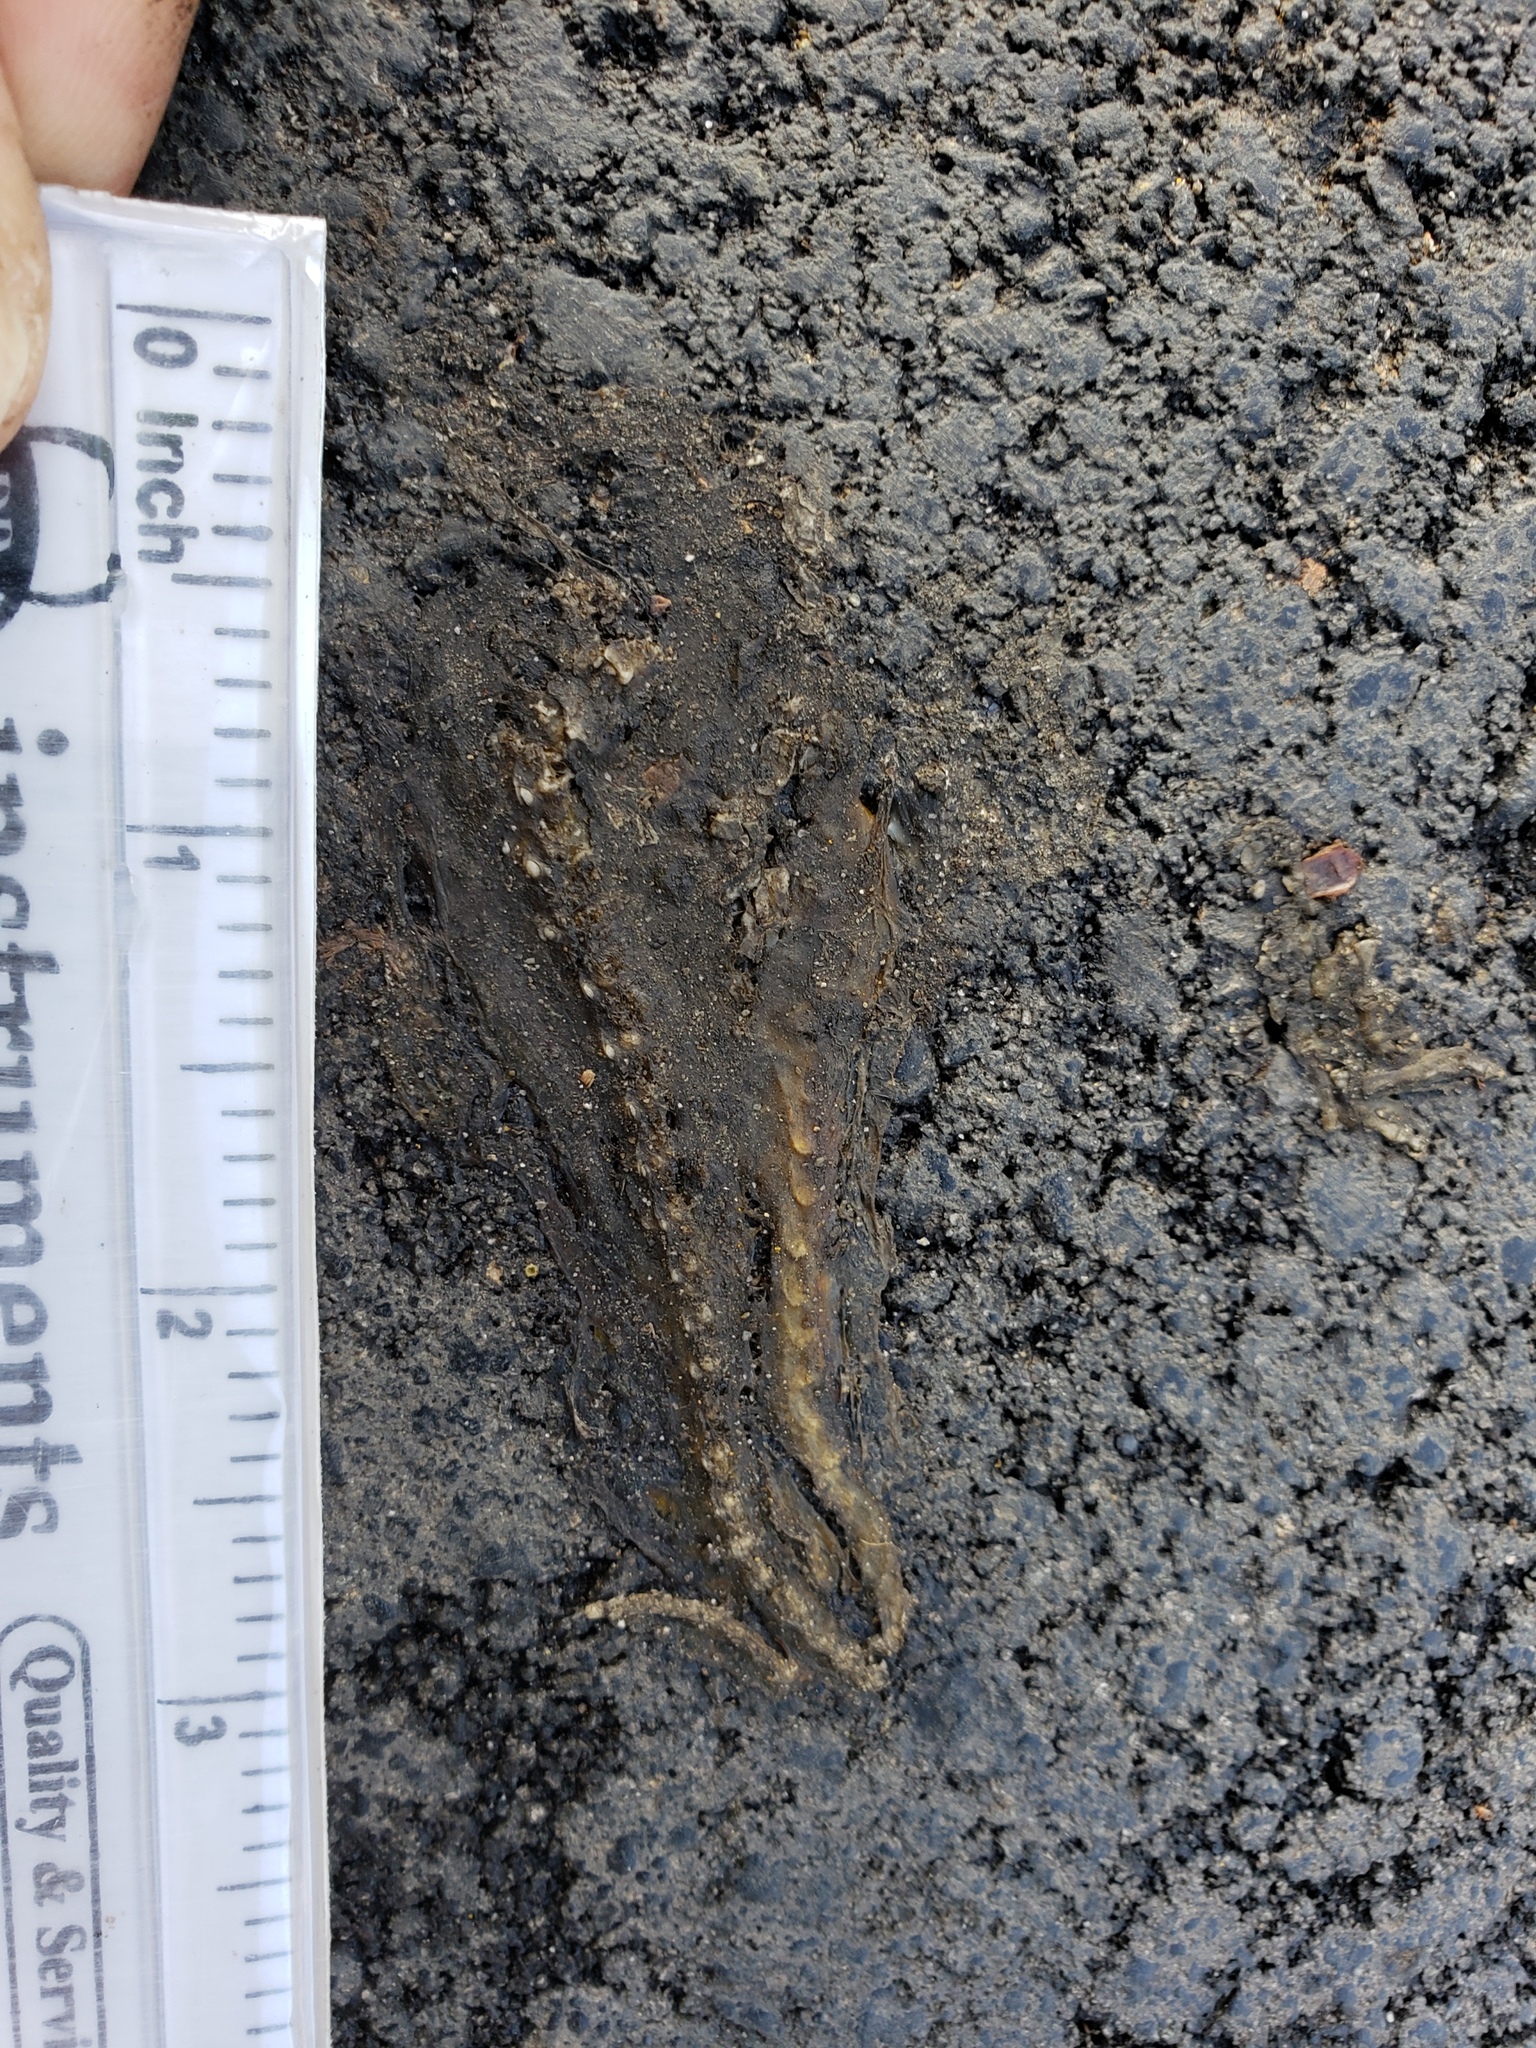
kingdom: Animalia
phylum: Chordata
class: Amphibia
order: Caudata
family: Salamandridae
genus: Taricha
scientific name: Taricha
